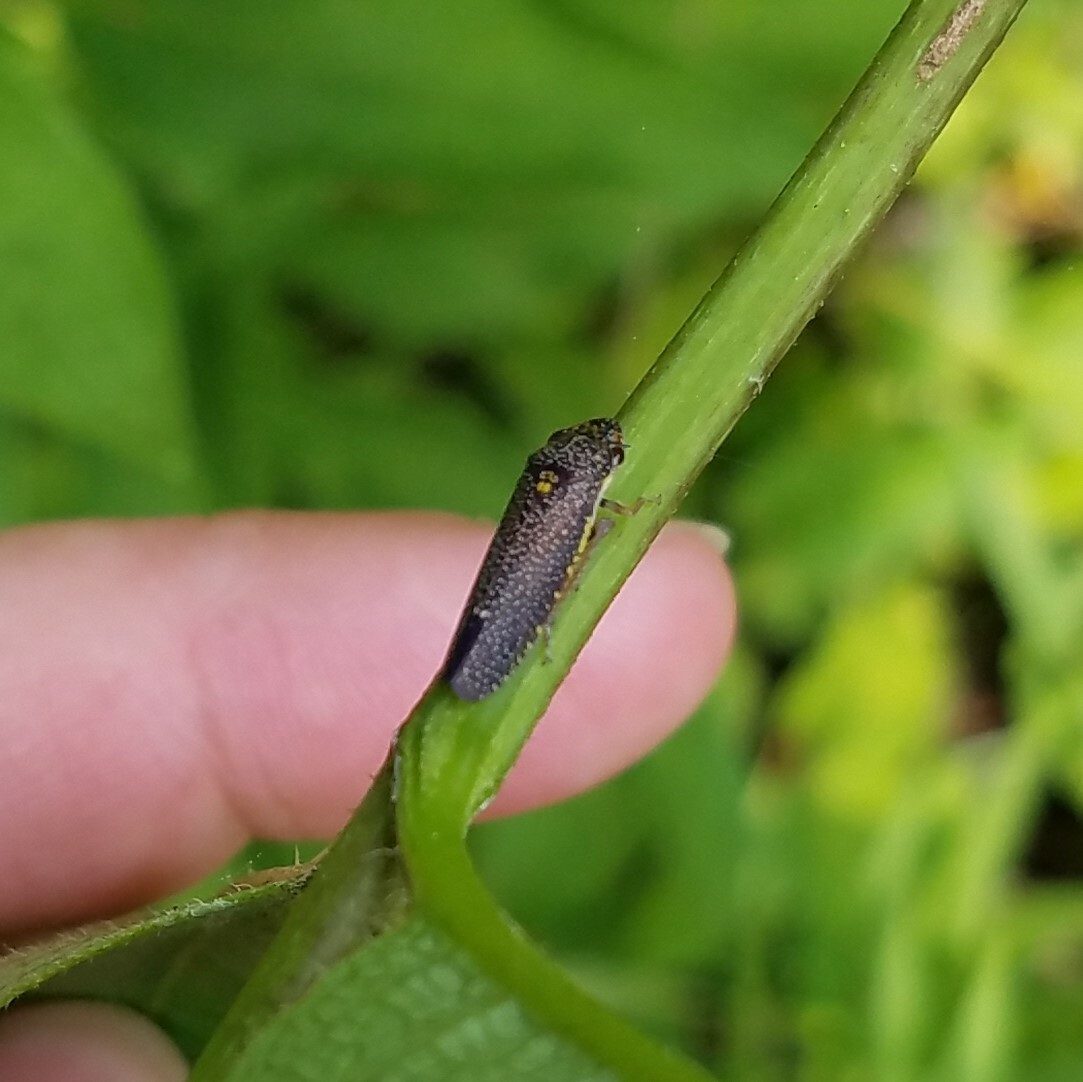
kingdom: Animalia
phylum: Arthropoda
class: Insecta
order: Hemiptera
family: Cicadellidae
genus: Paraulacizes
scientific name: Paraulacizes irrorata
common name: Speckled sharpshooter
